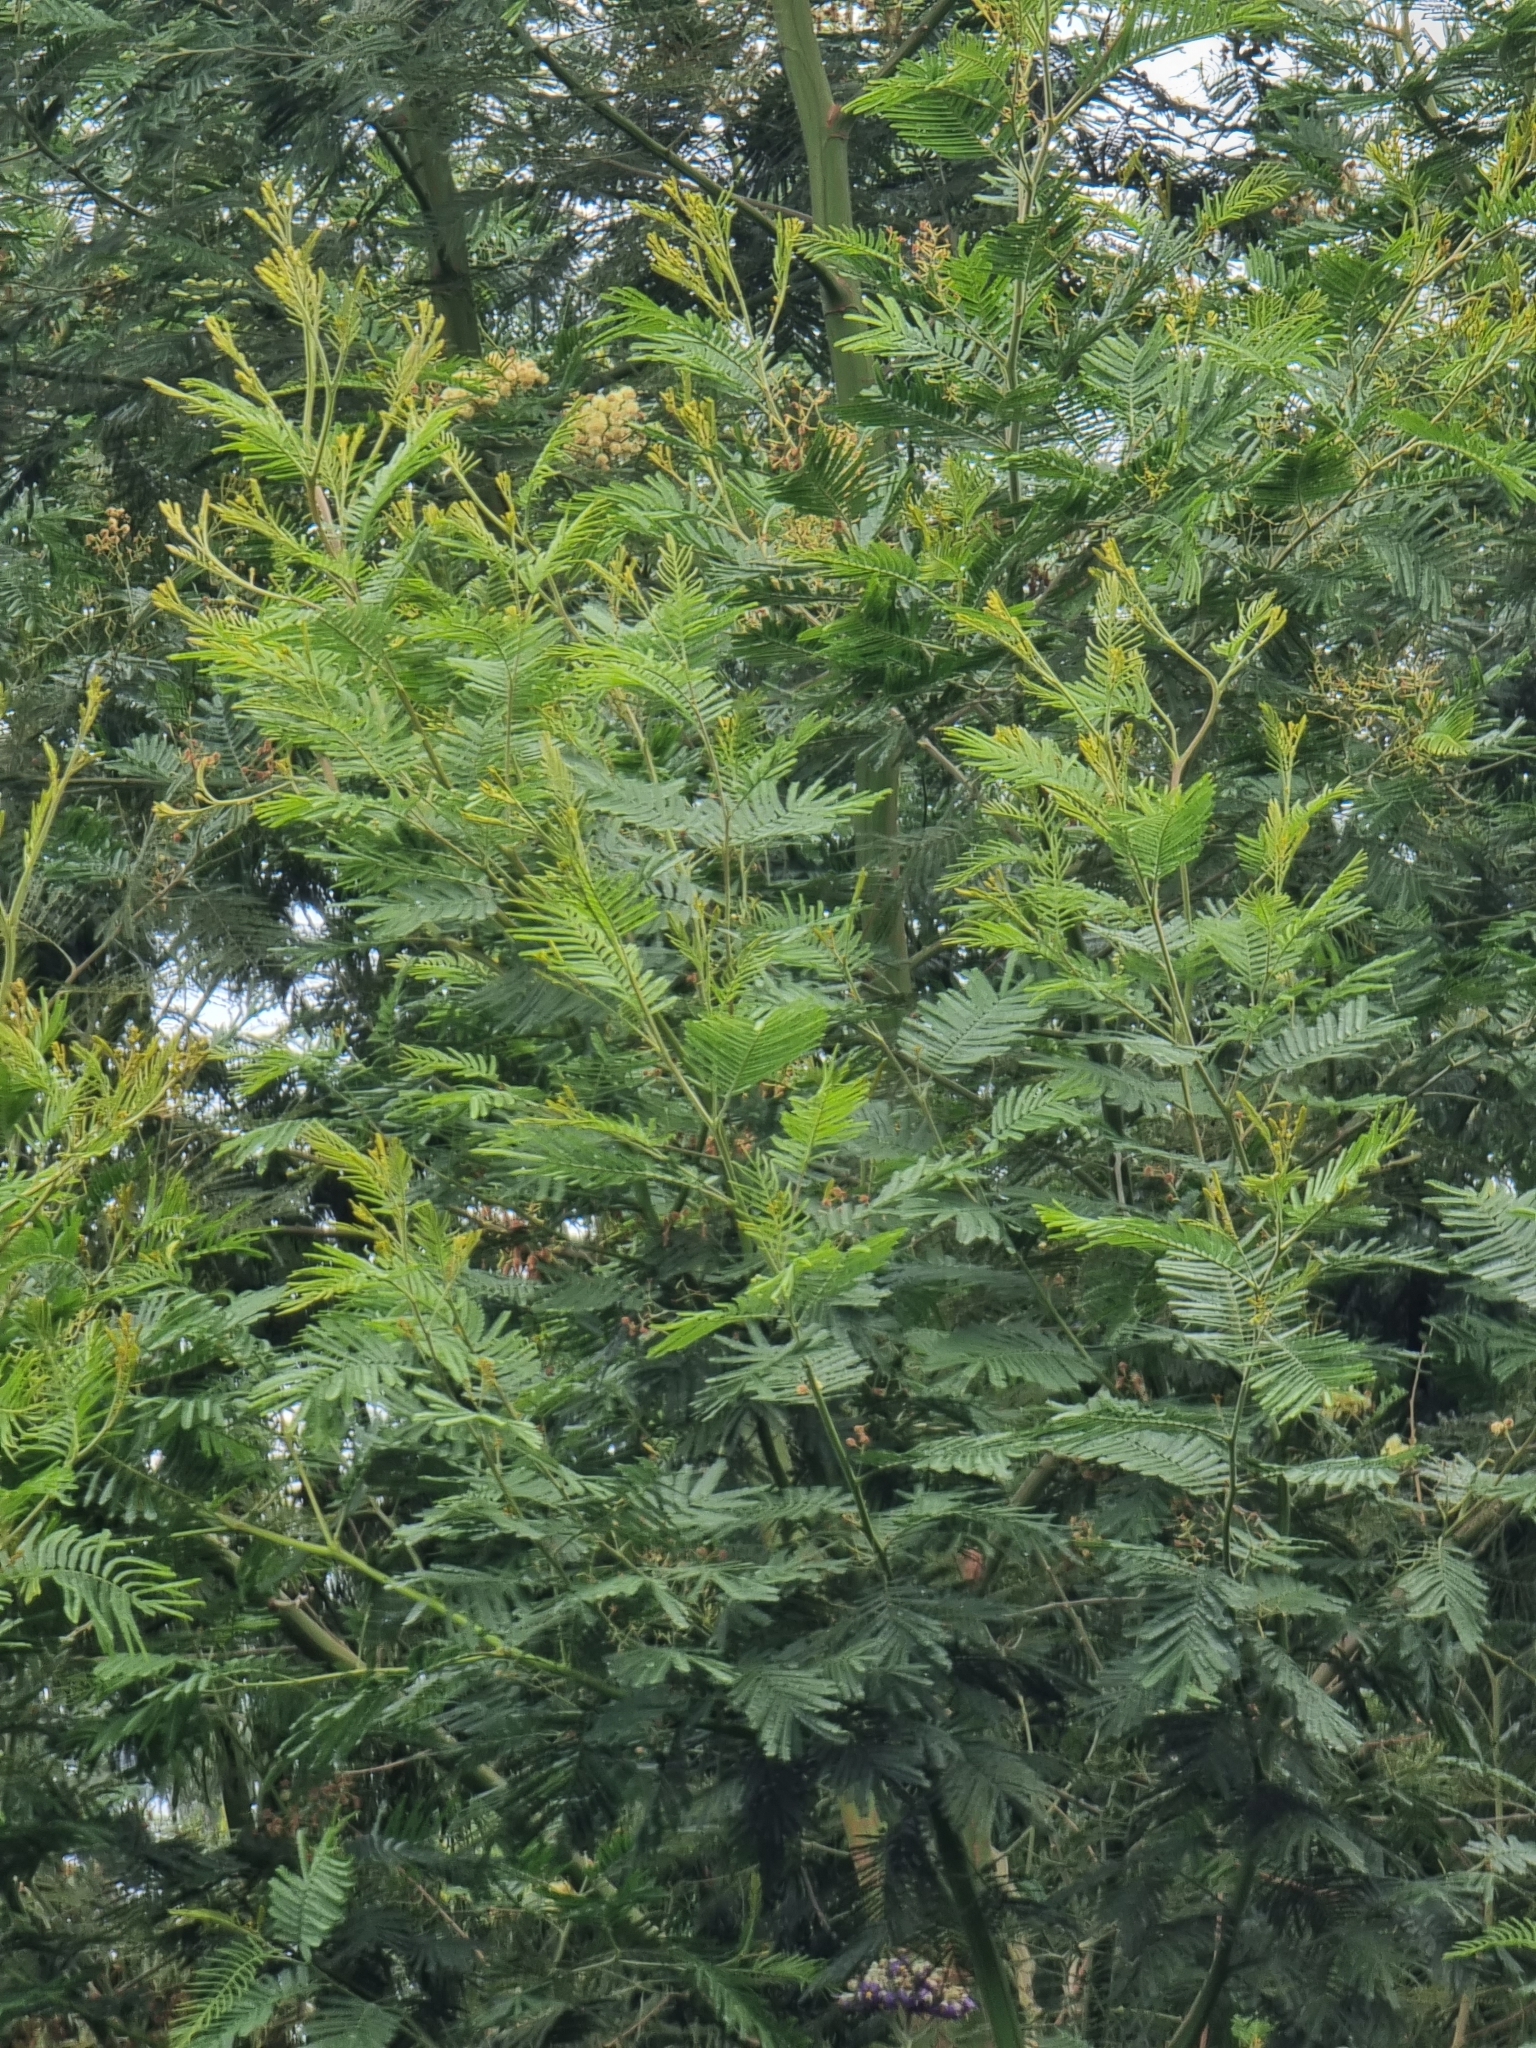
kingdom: Plantae
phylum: Tracheophyta
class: Magnoliopsida
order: Fabales
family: Fabaceae
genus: Acacia
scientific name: Acacia mearnsii
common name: Black wattle
